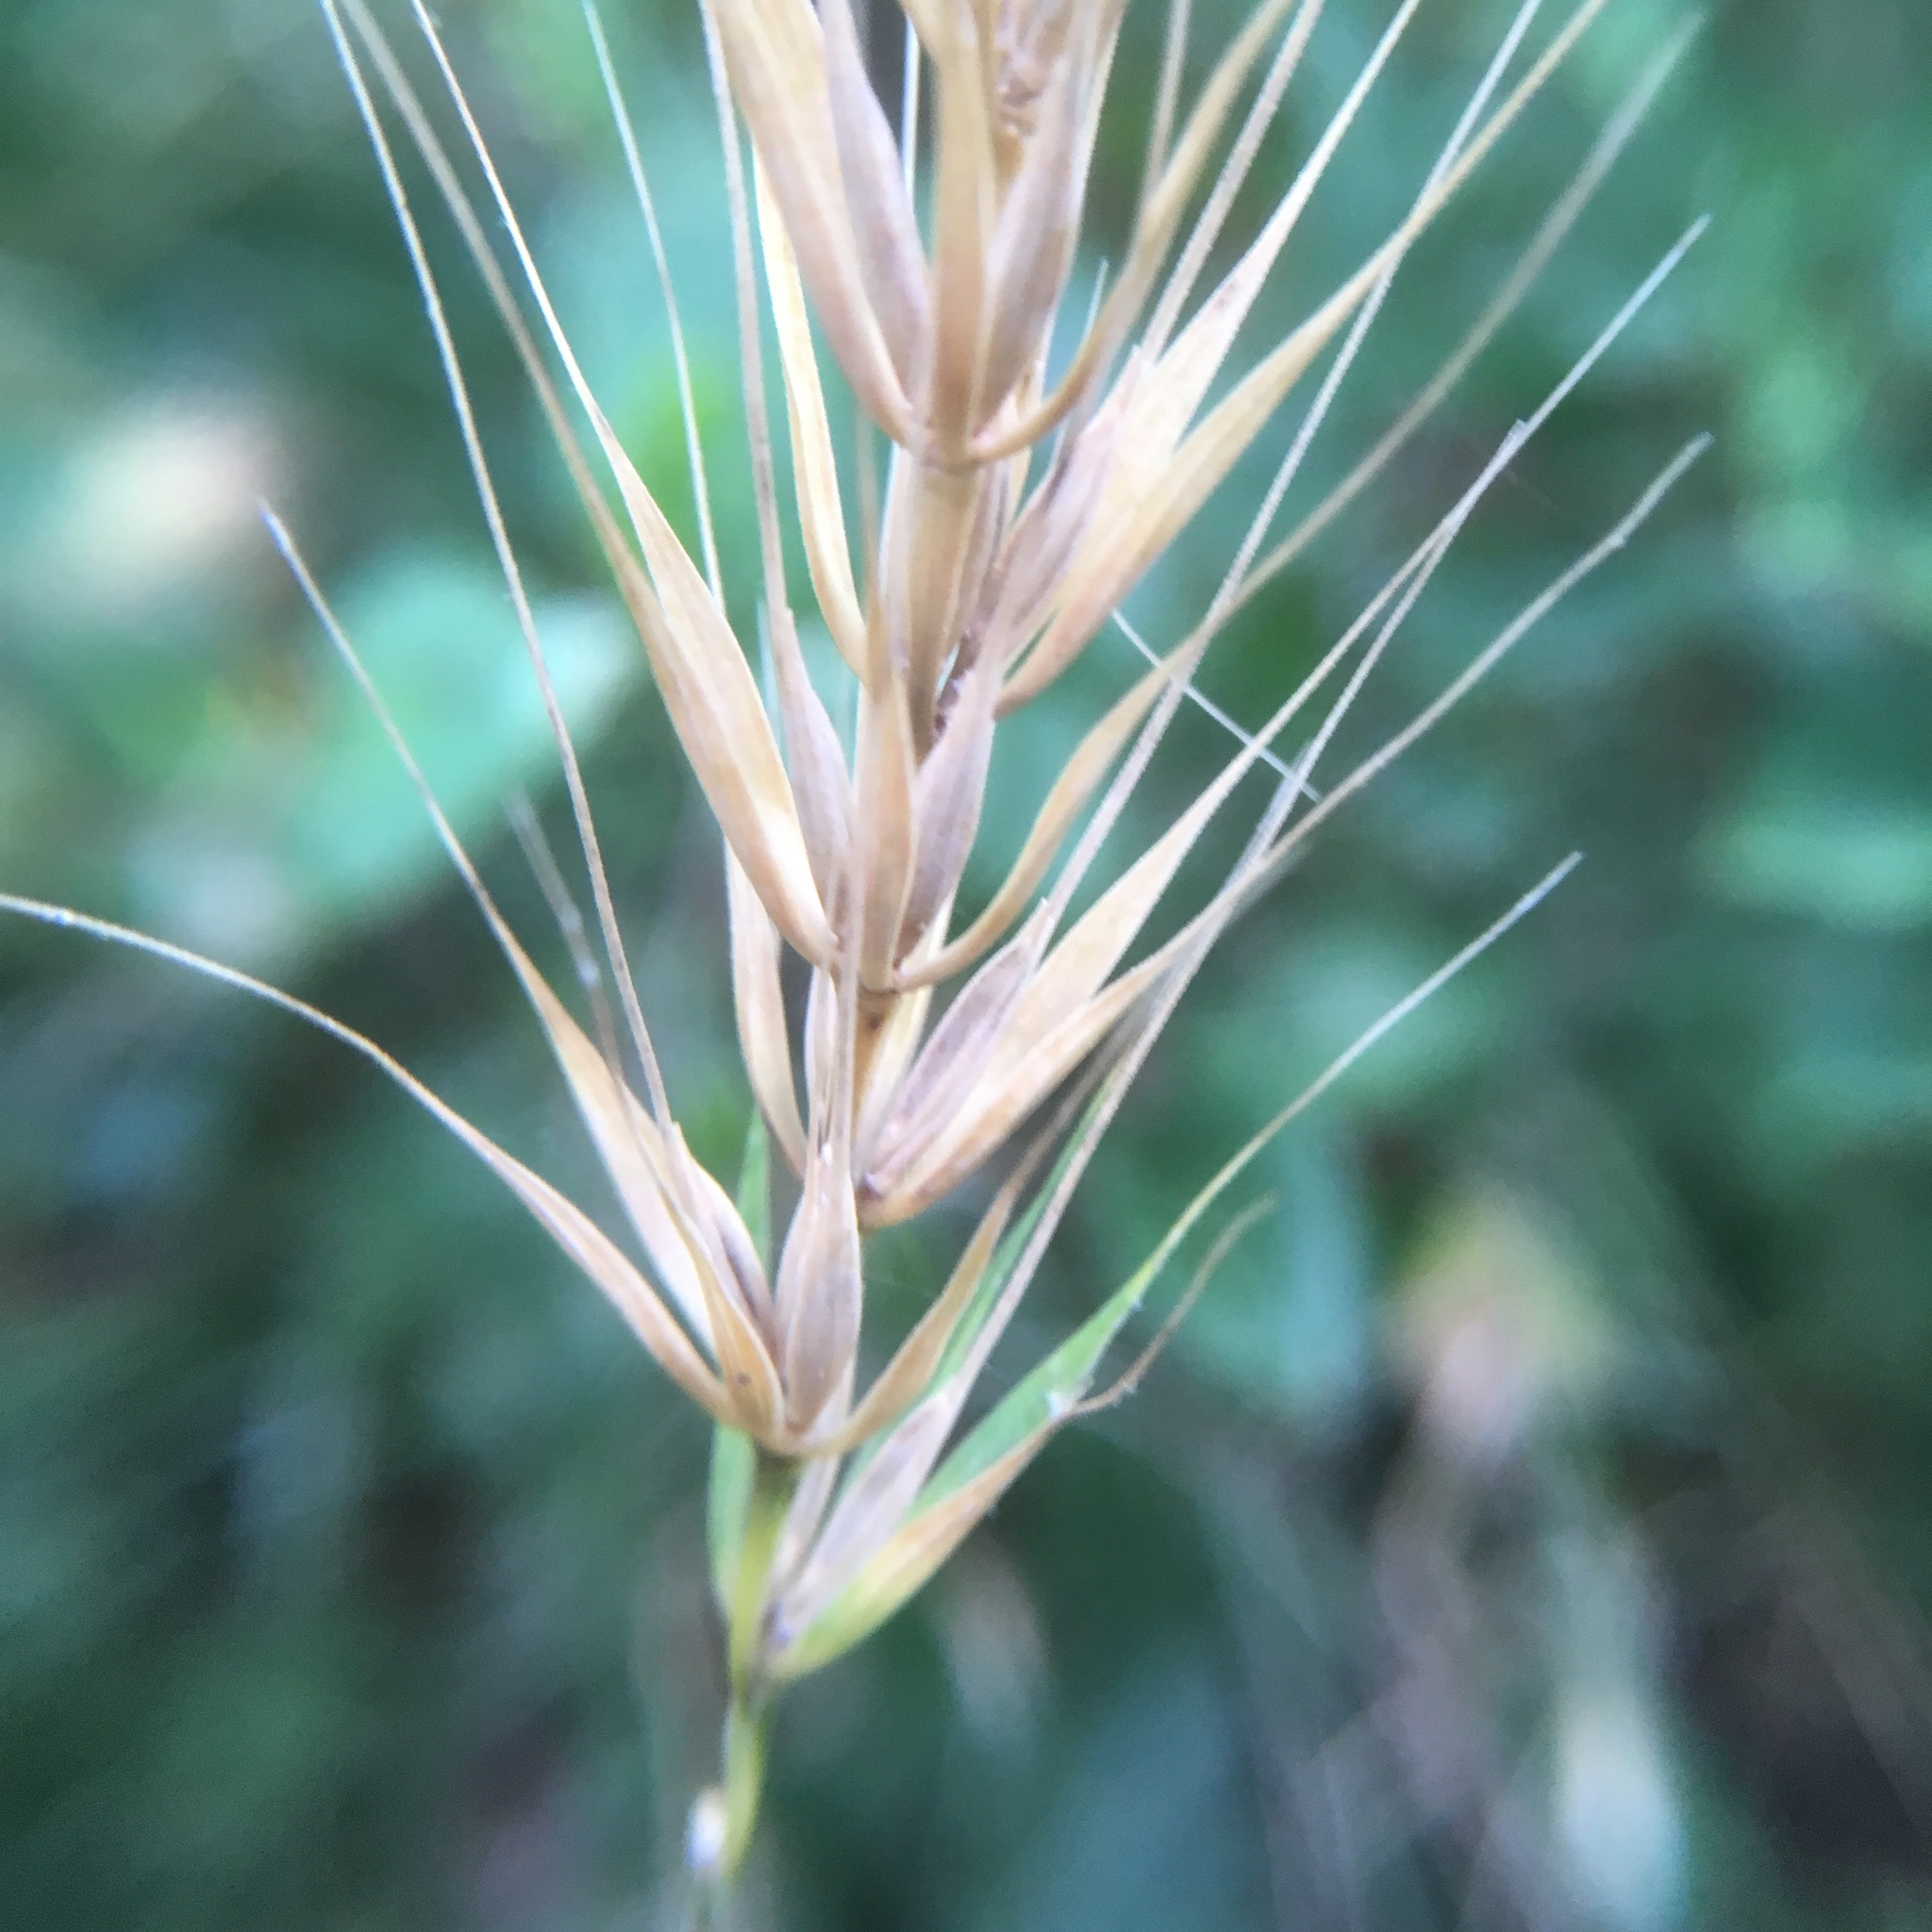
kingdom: Plantae
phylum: Tracheophyta
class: Liliopsida
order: Poales
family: Poaceae
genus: Elymus
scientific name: Elymus macgregorii
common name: Early wild rye
